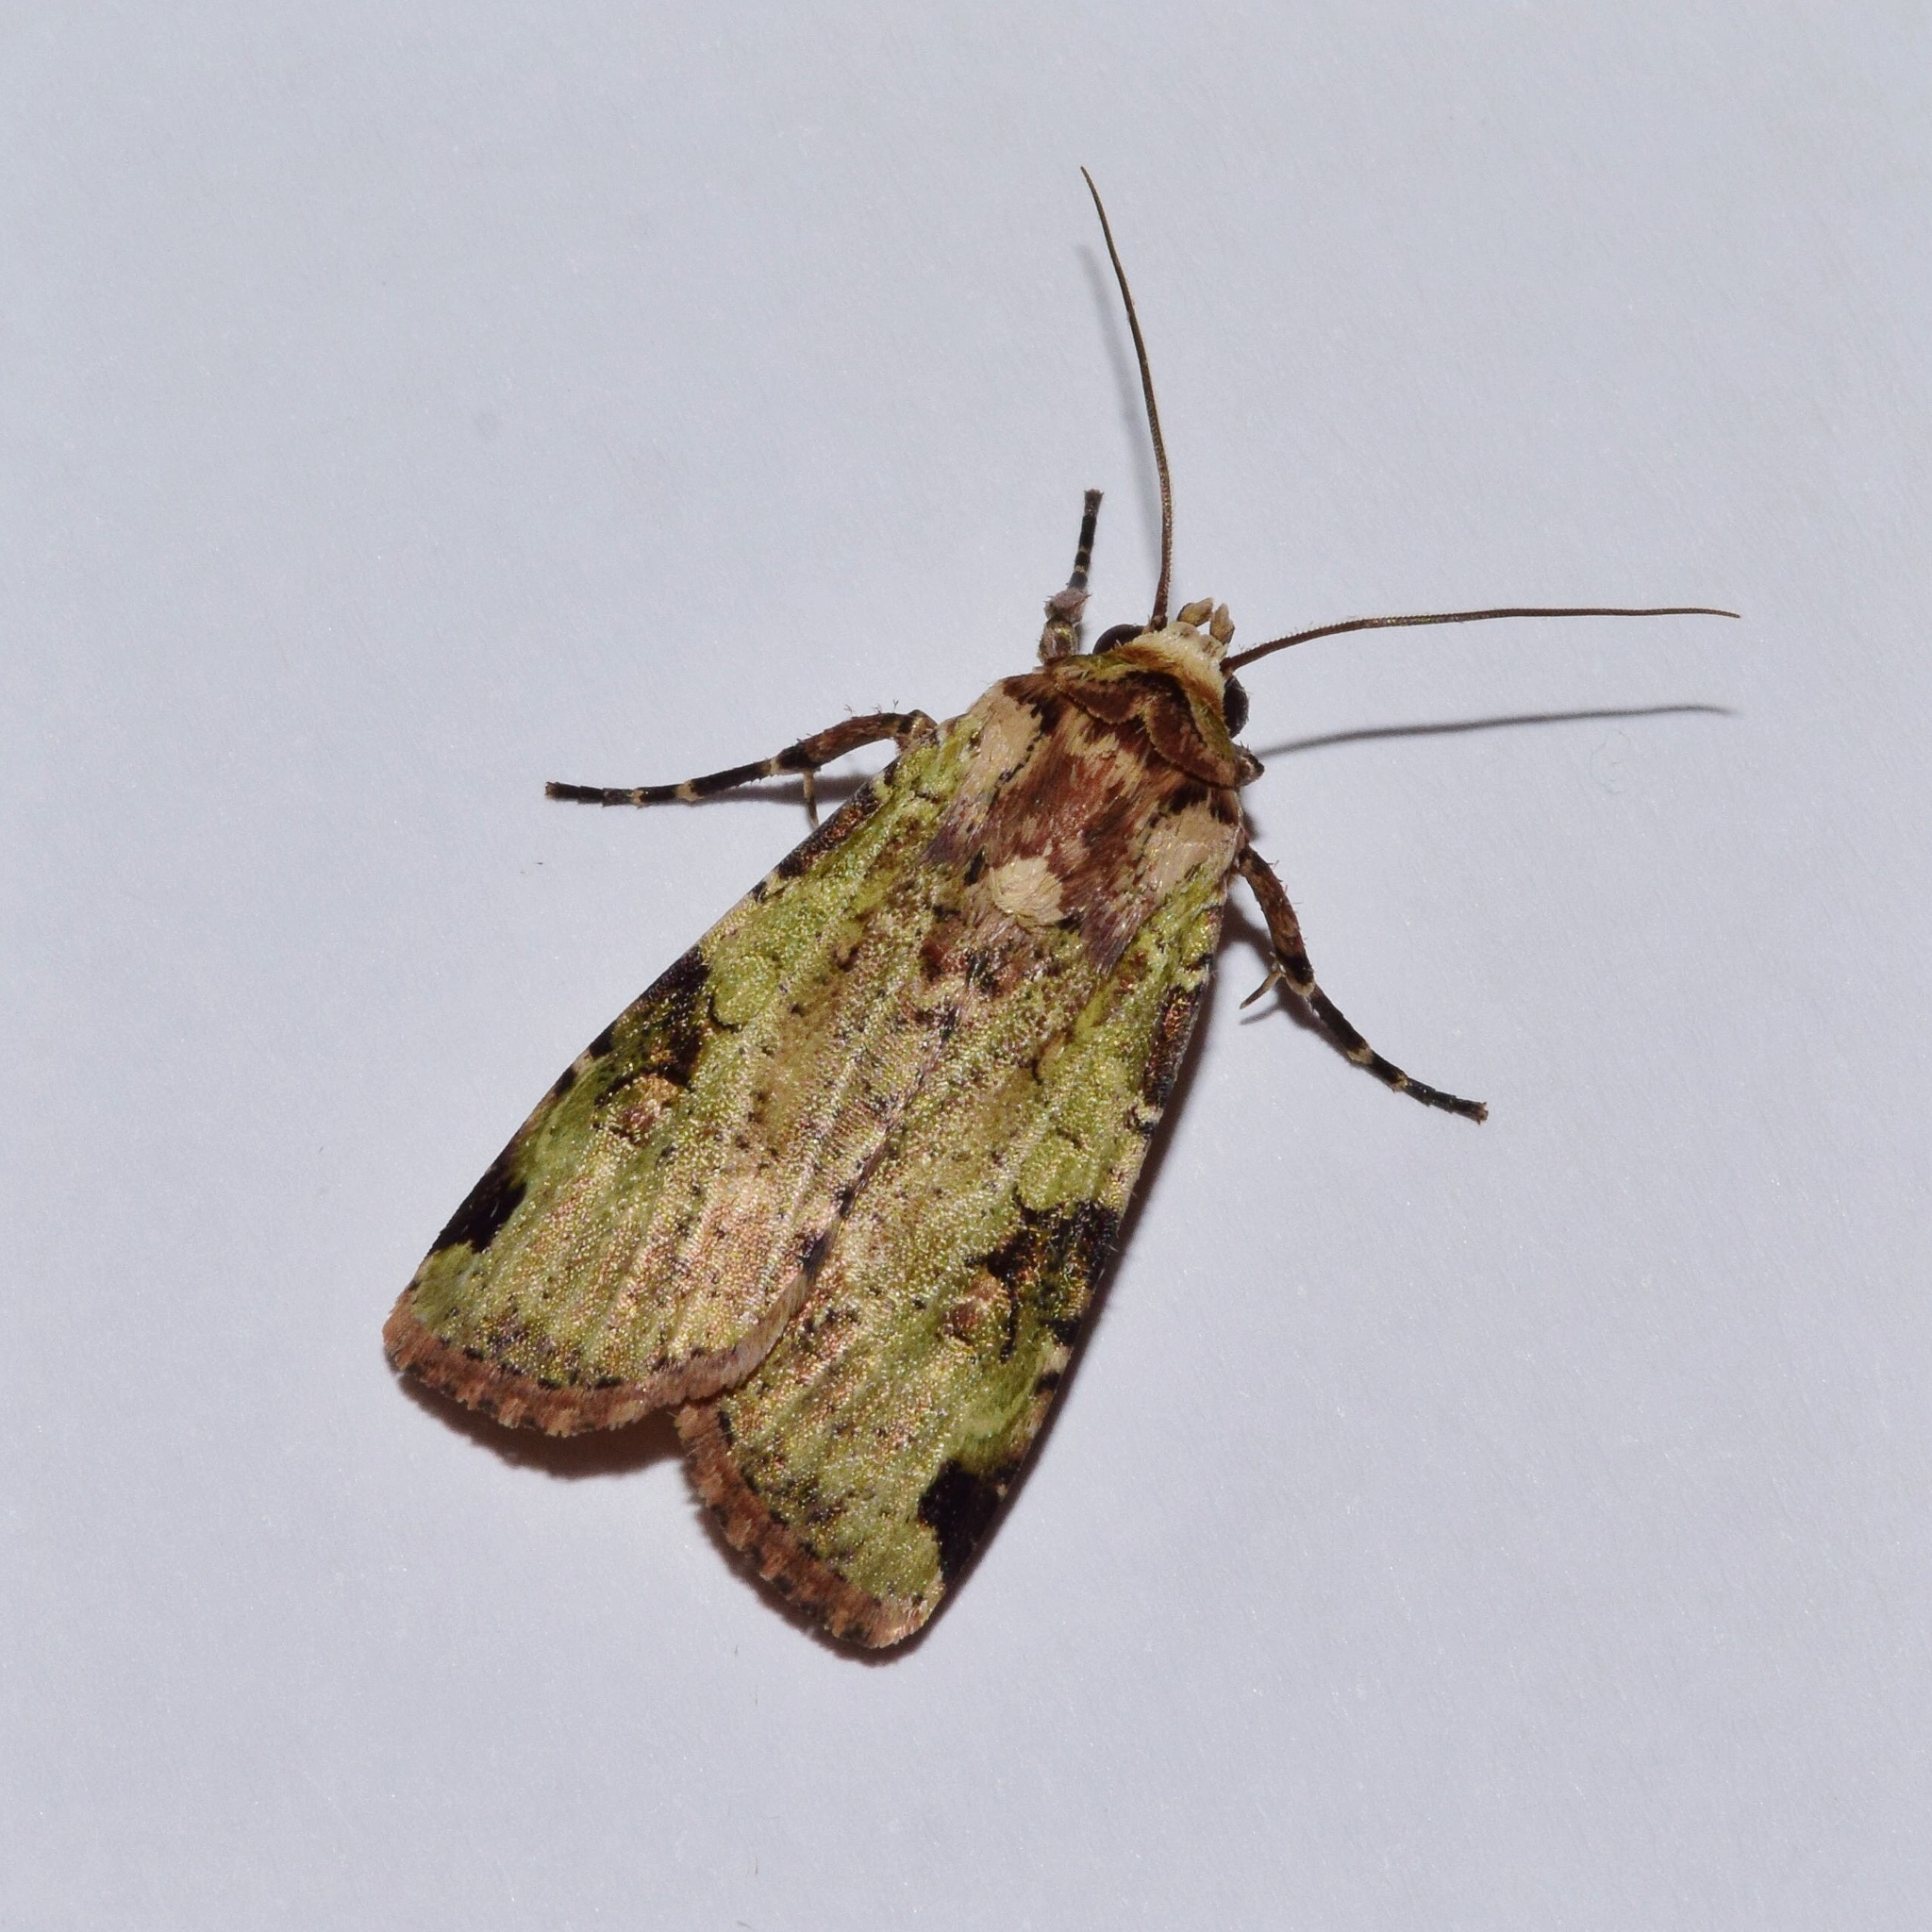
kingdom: Animalia
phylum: Arthropoda
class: Insecta
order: Lepidoptera
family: Noctuidae
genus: Mentaxya
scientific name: Mentaxya ignicollis
